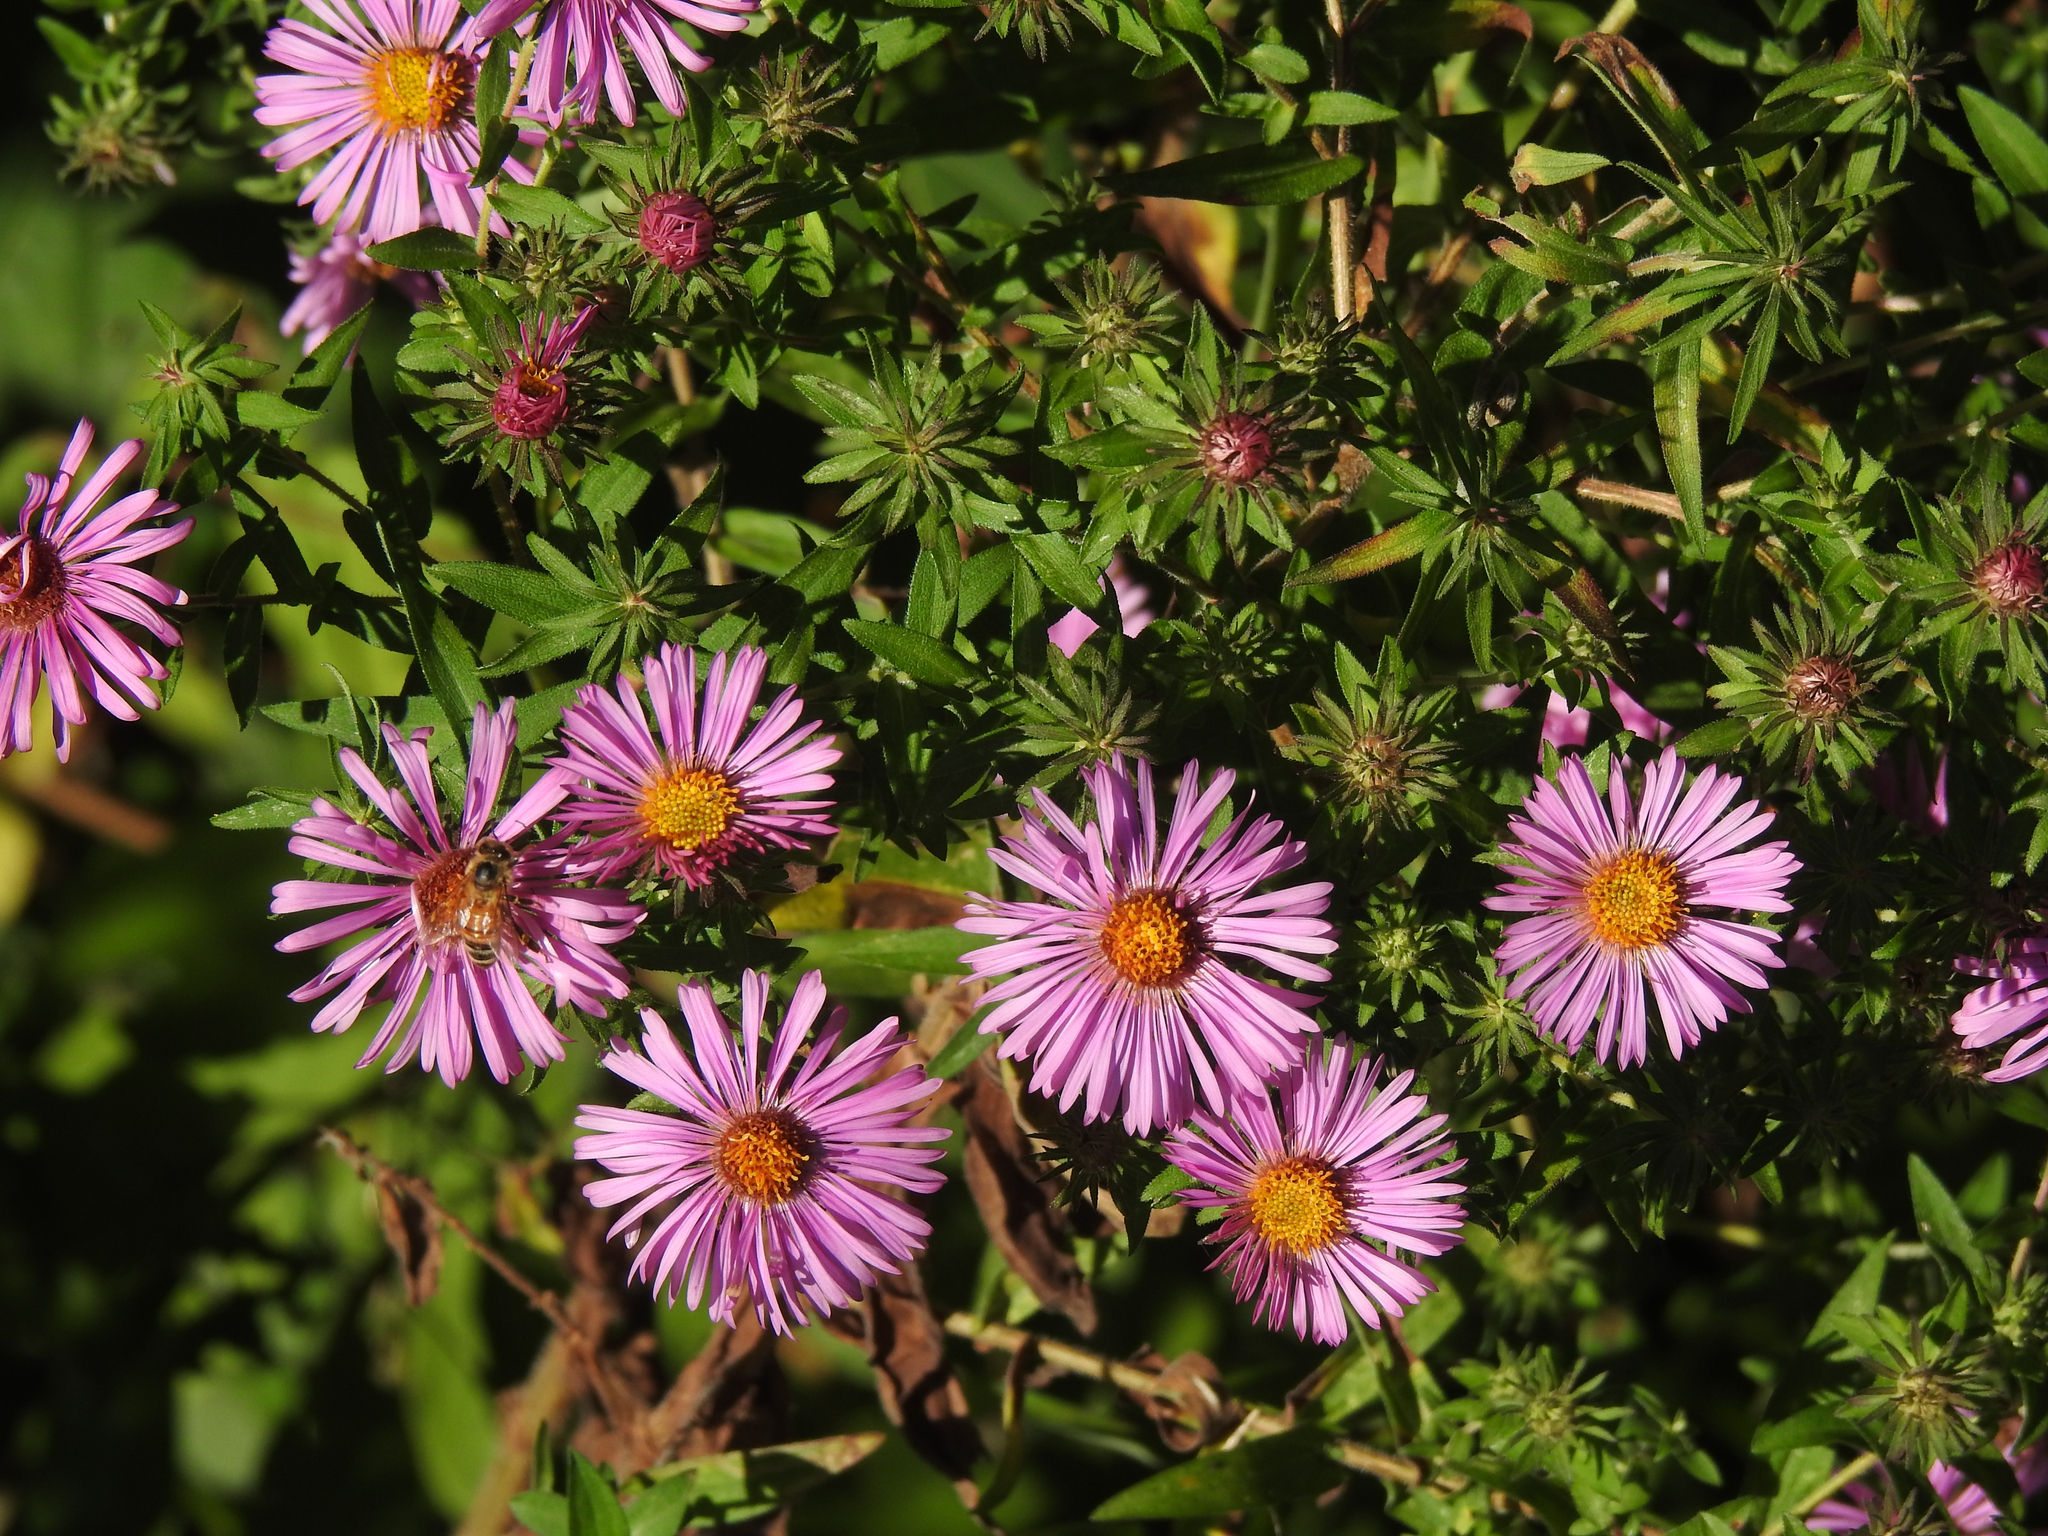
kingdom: Plantae
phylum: Tracheophyta
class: Magnoliopsida
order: Asterales
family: Asteraceae
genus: Symphyotrichum
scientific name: Symphyotrichum novae-angliae
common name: Michaelmas daisy
